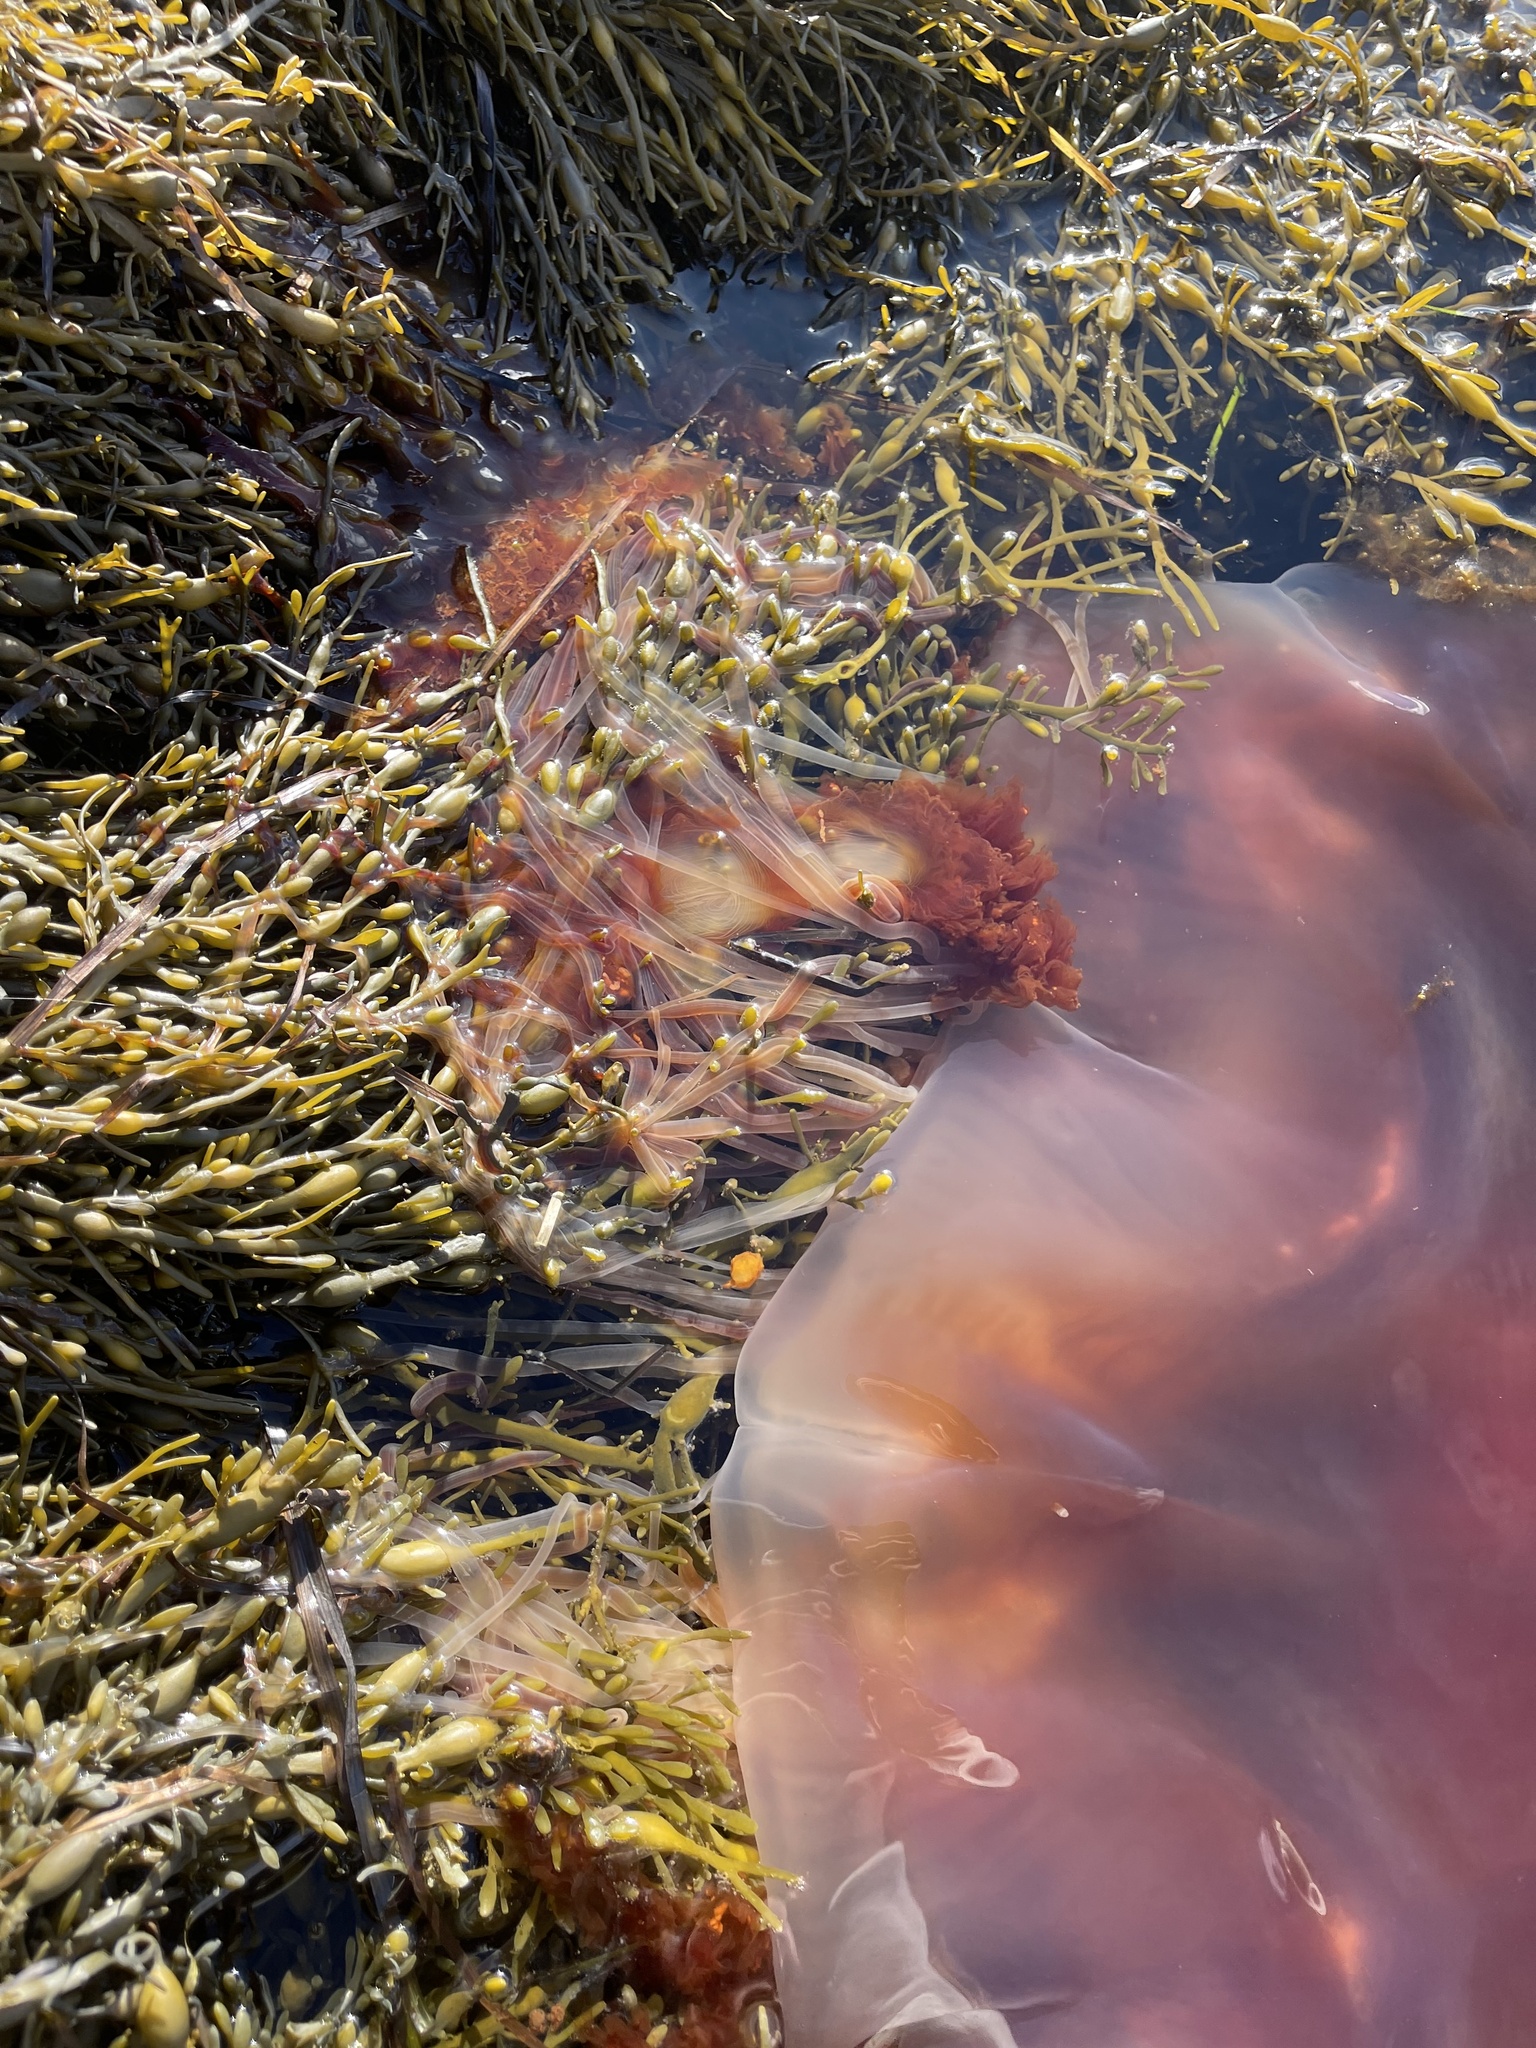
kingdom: Animalia
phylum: Cnidaria
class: Scyphozoa
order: Semaeostomeae
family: Cyaneidae
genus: Cyanea
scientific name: Cyanea
